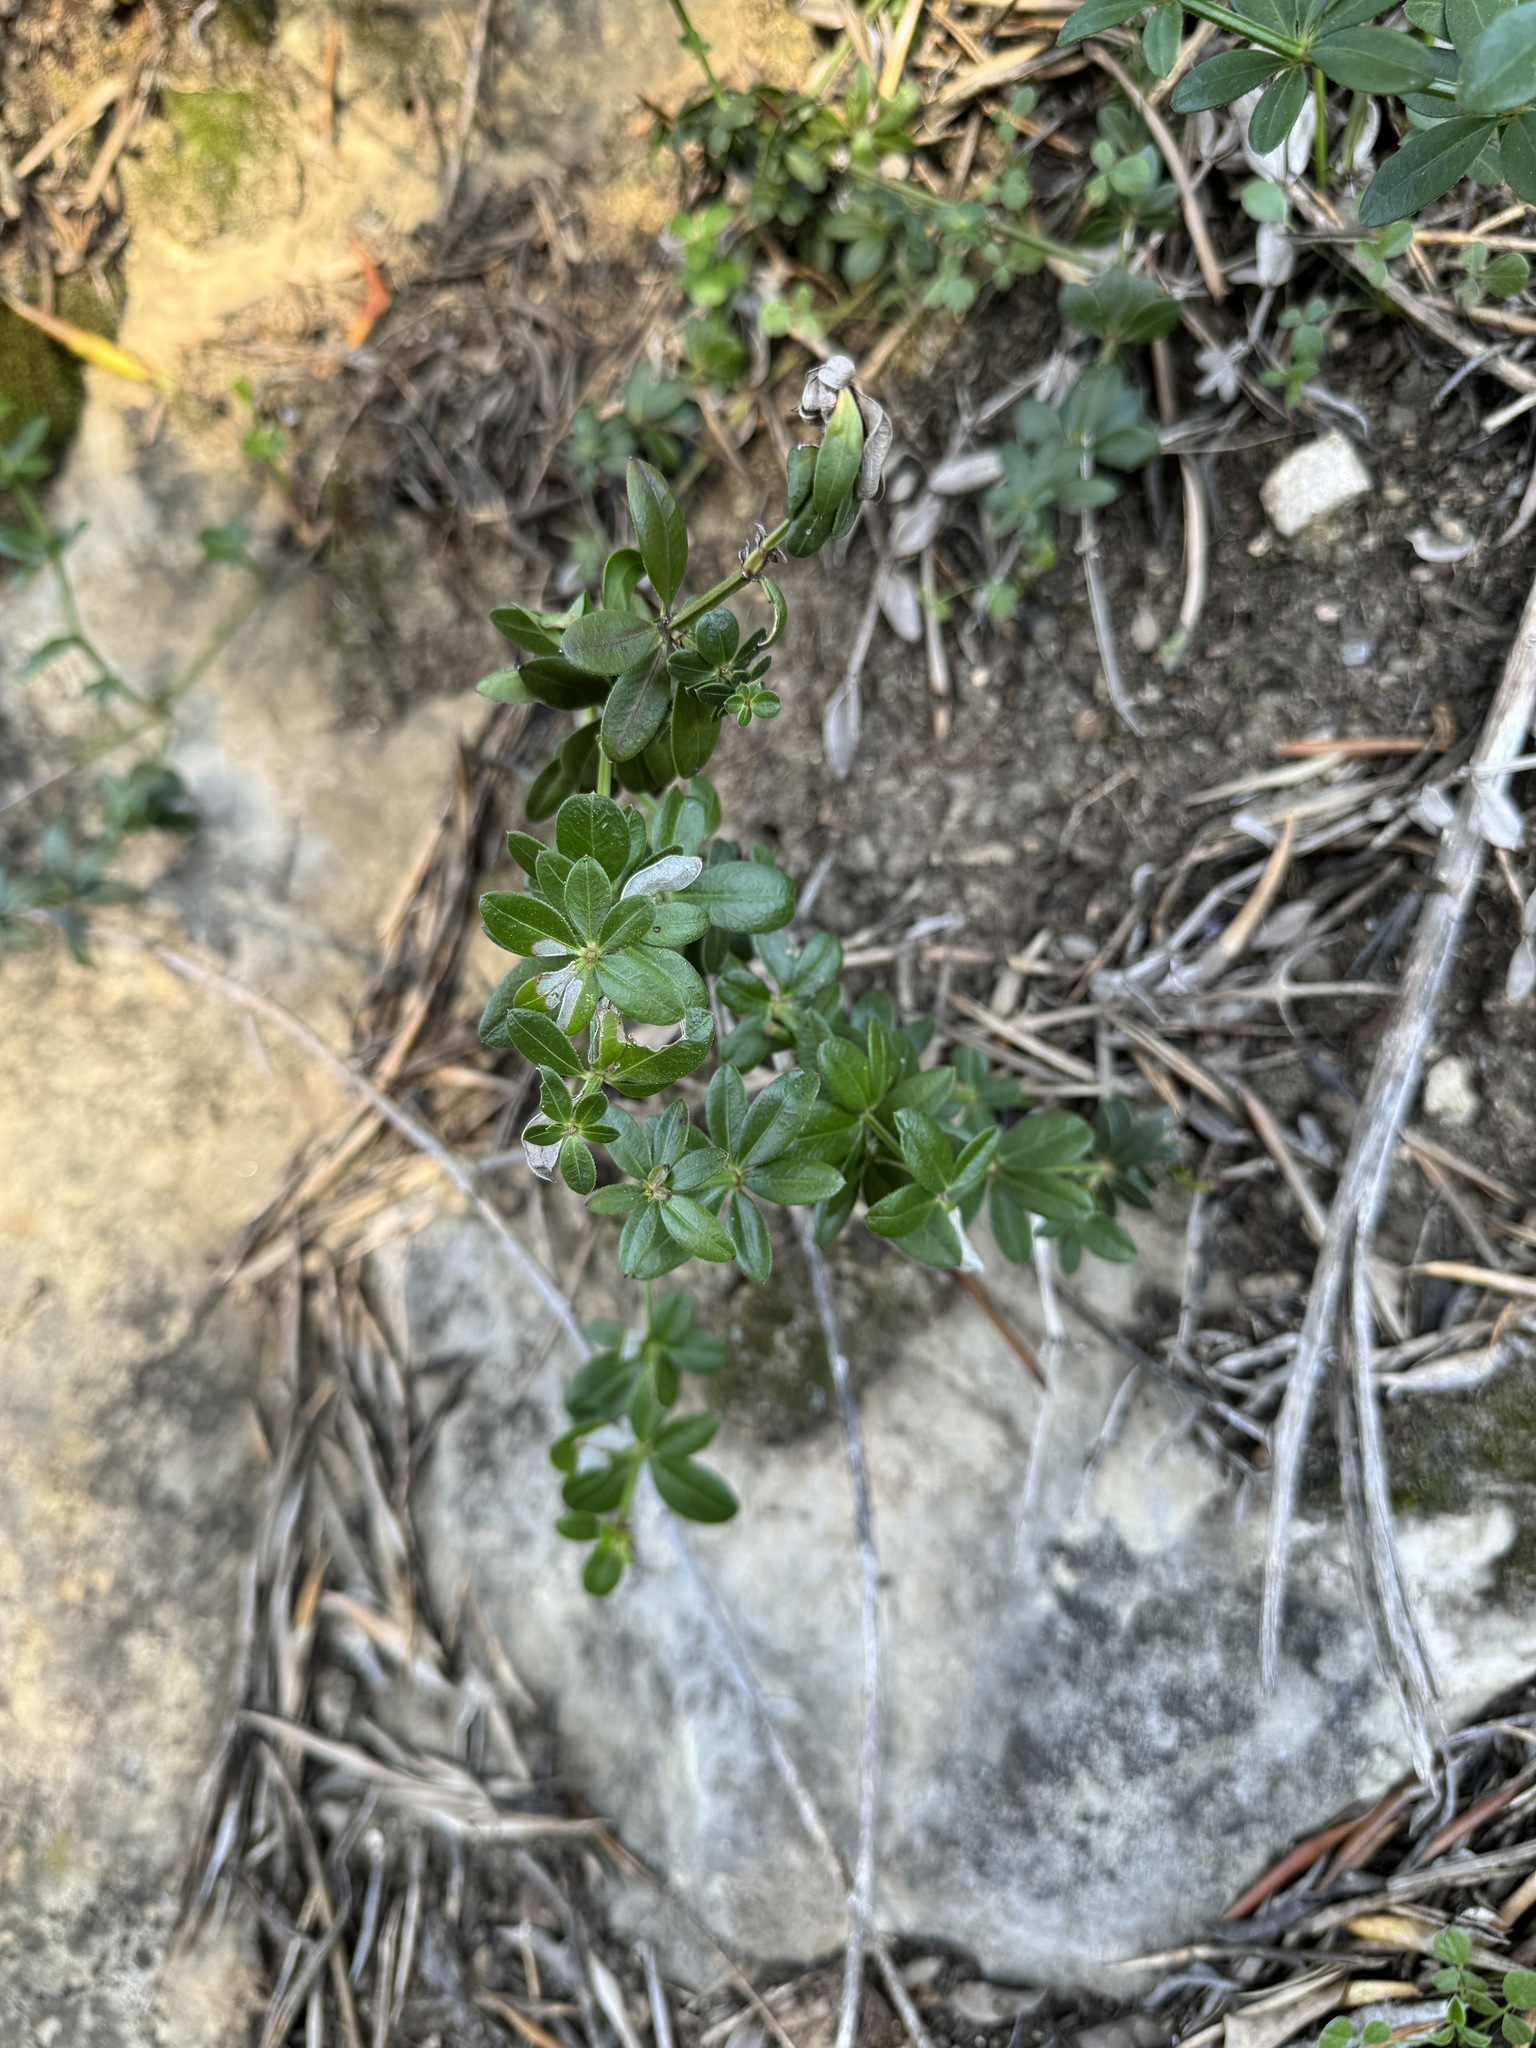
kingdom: Plantae
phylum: Tracheophyta
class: Magnoliopsida
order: Gentianales
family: Rubiaceae
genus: Rubia
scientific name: Rubia peregrina
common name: Wild madder
